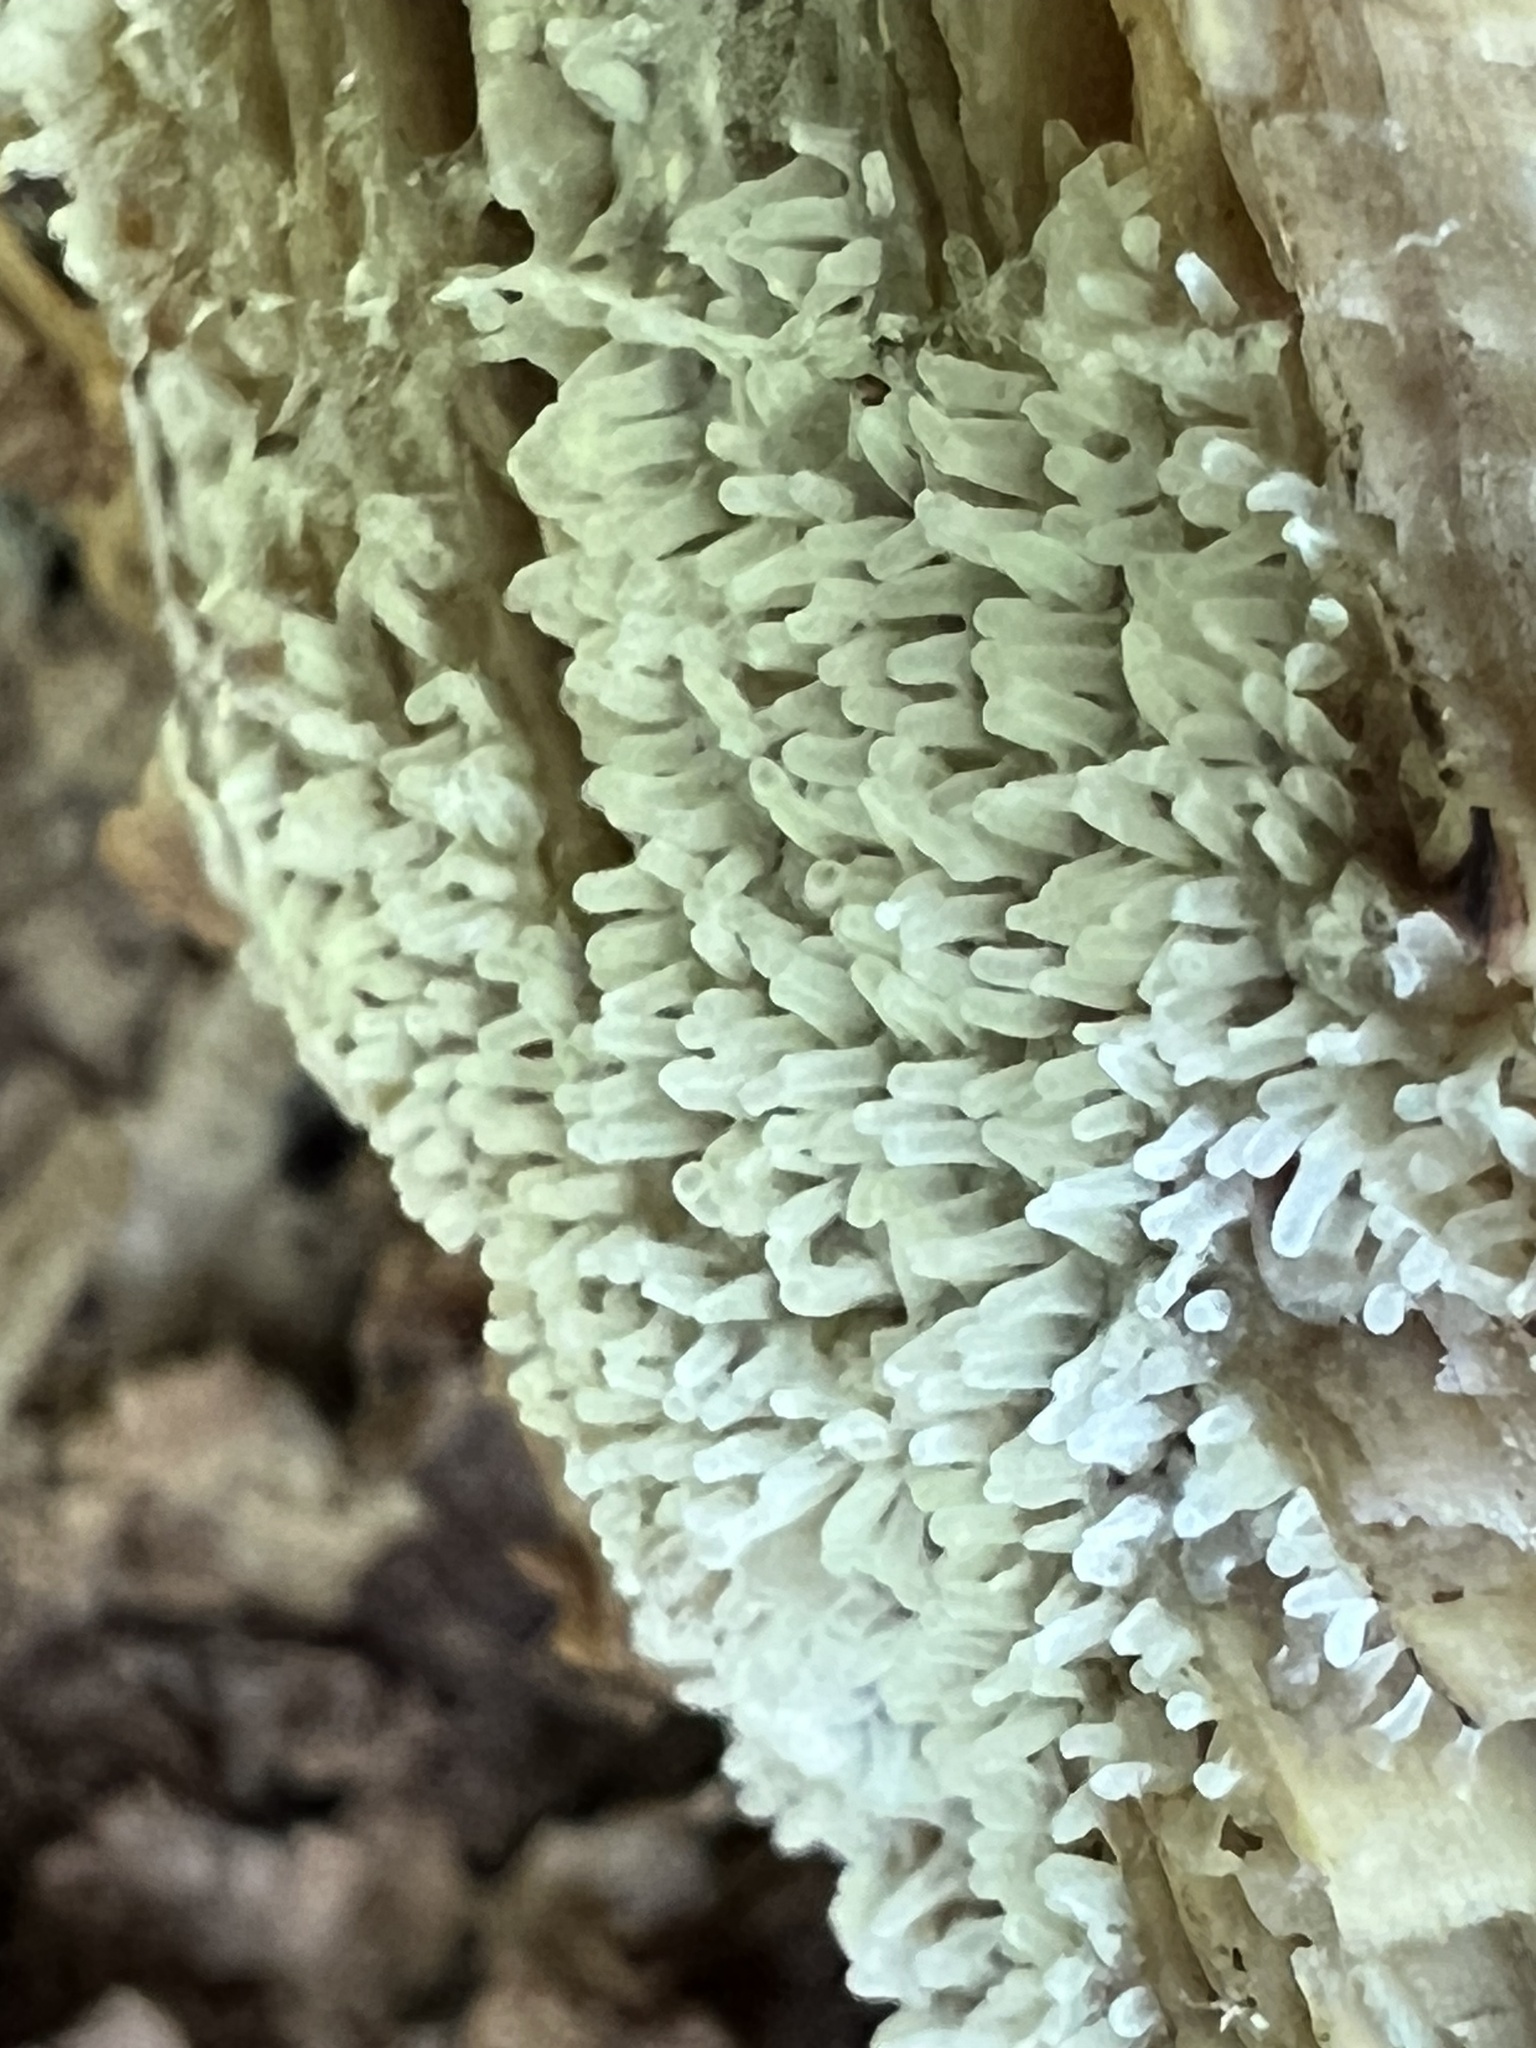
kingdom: Protozoa
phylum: Mycetozoa
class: Protosteliomycetes
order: Ceratiomyxales
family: Ceratiomyxaceae
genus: Ceratiomyxa
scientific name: Ceratiomyxa fruticulosa
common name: Honeycomb coral slime mold
